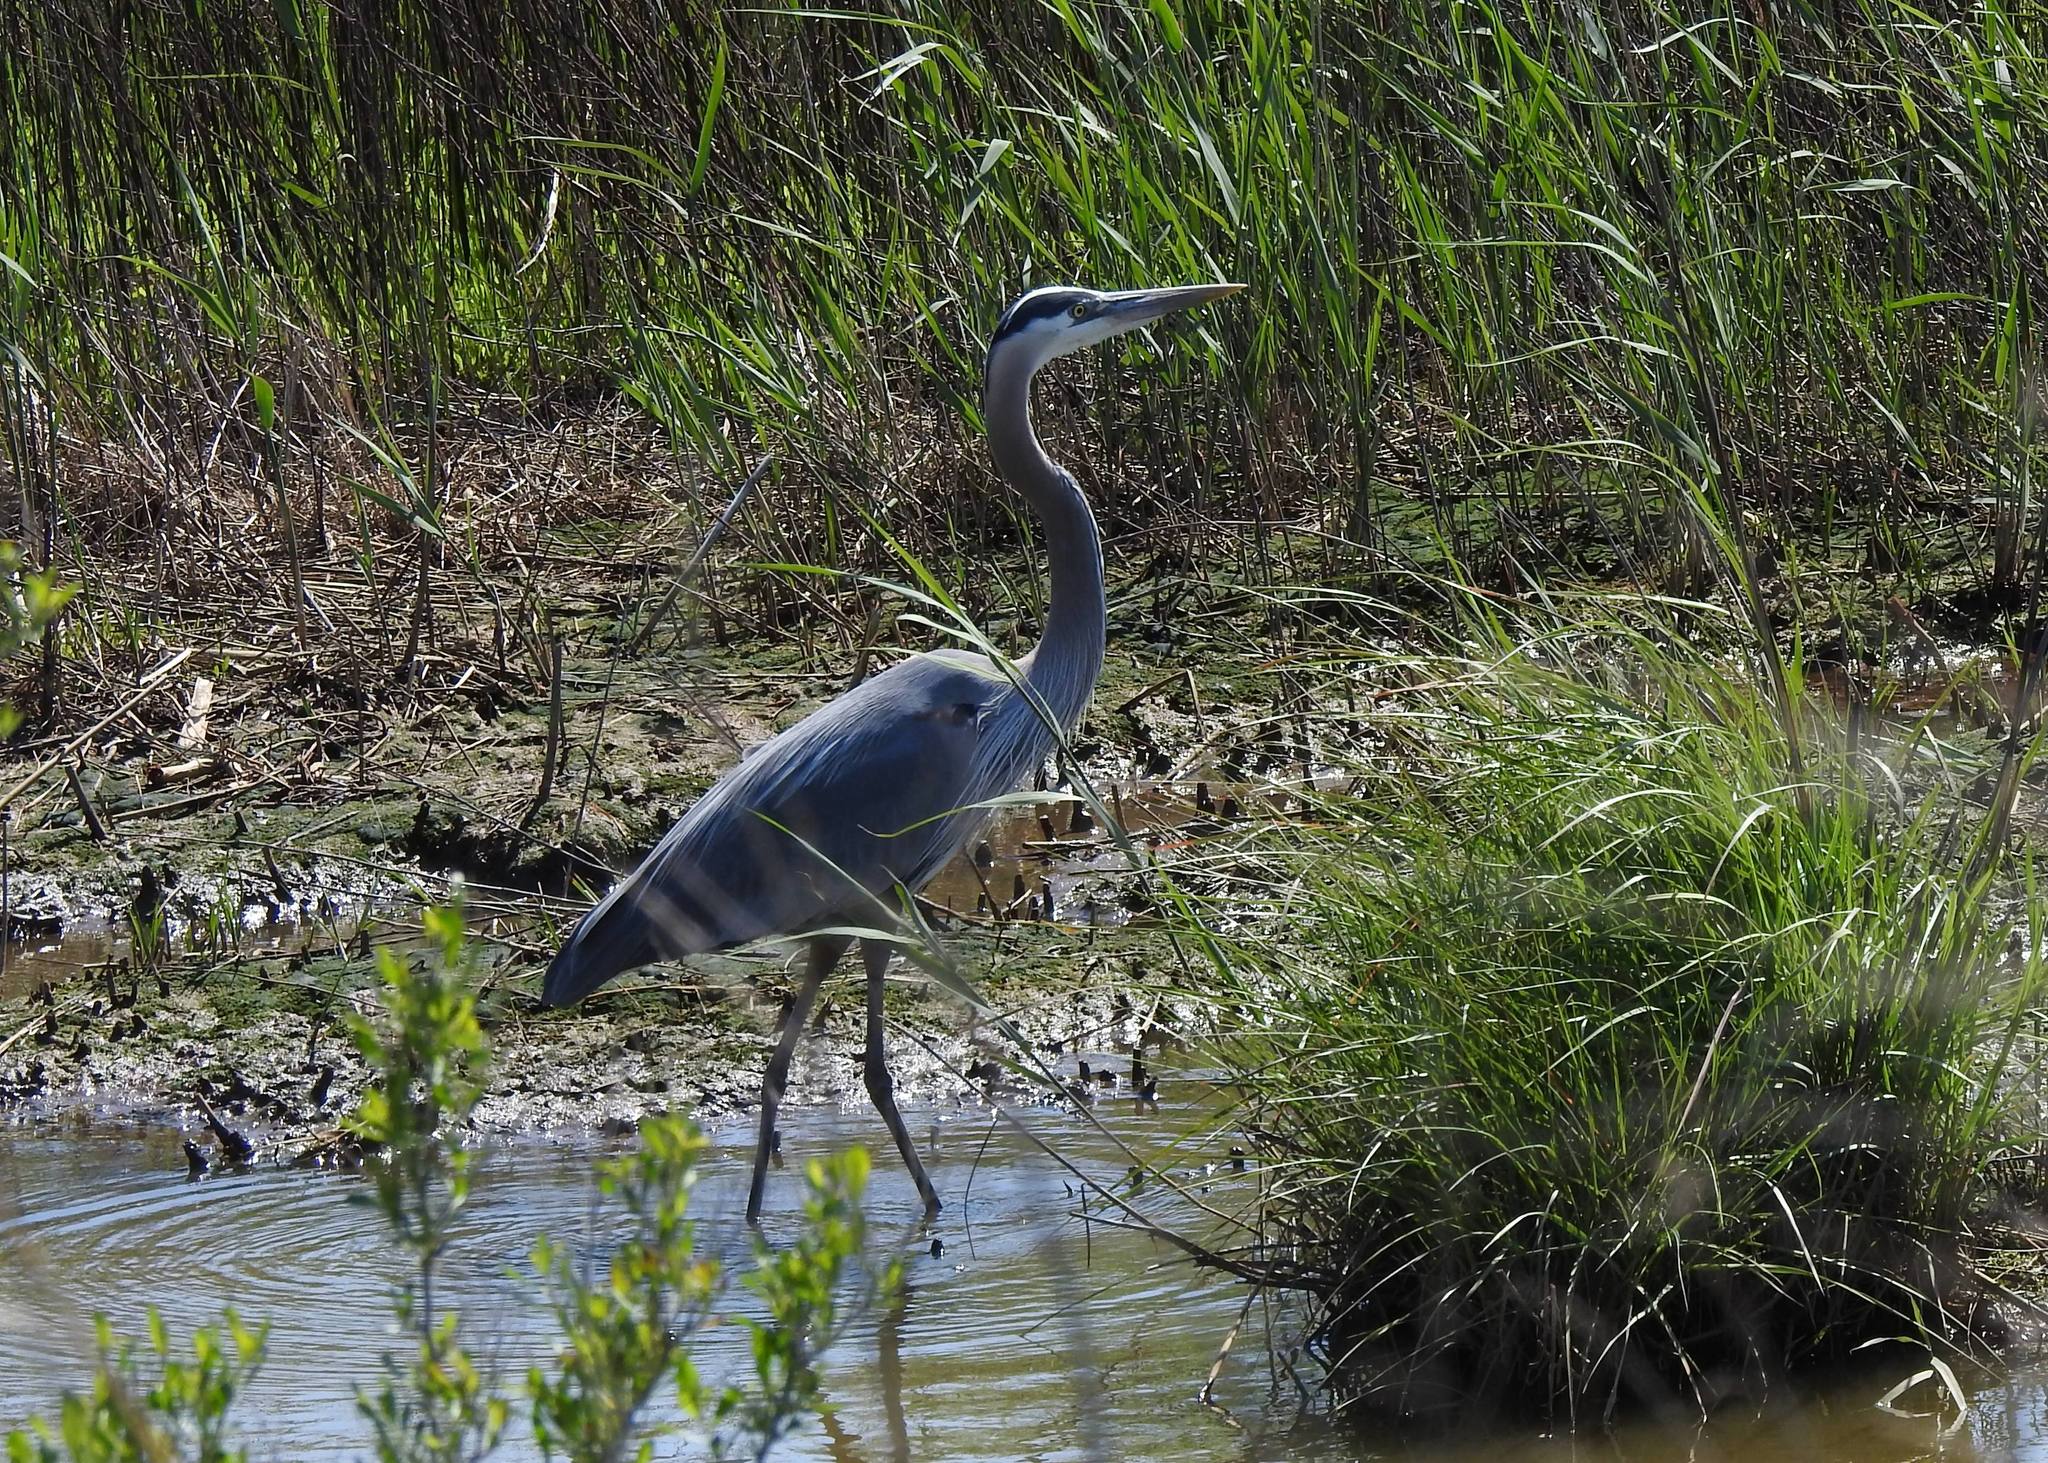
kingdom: Animalia
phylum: Chordata
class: Aves
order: Pelecaniformes
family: Ardeidae
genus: Ardea
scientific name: Ardea herodias
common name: Great blue heron
